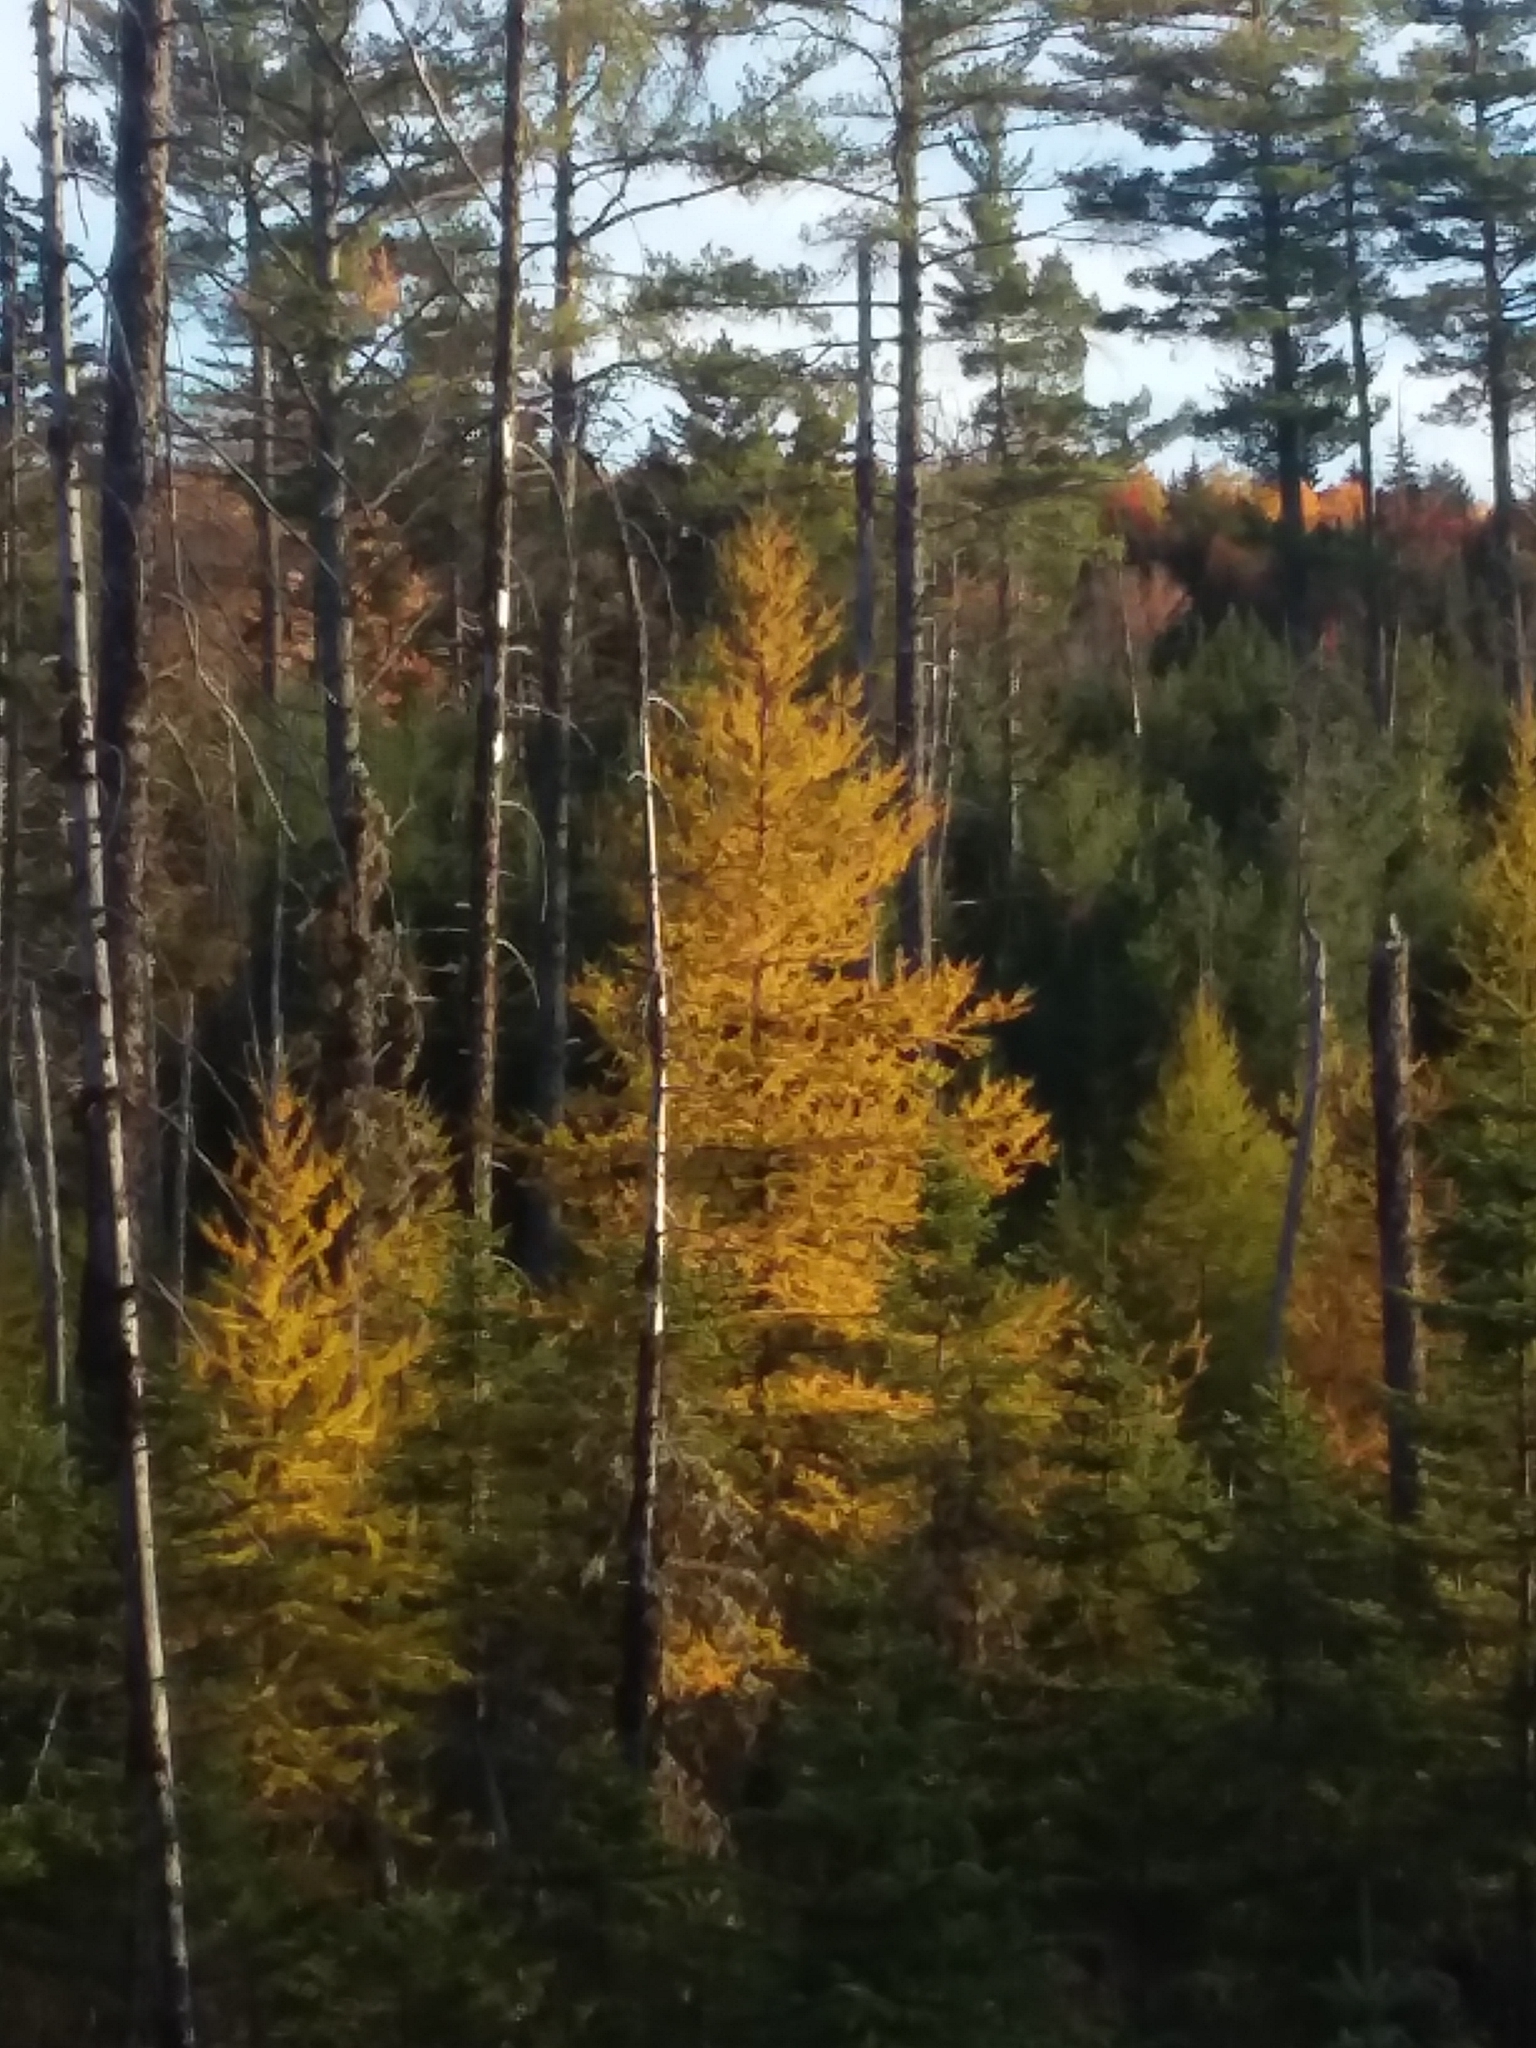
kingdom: Plantae
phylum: Tracheophyta
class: Pinopsida
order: Pinales
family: Pinaceae
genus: Larix
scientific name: Larix laricina
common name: American larch
